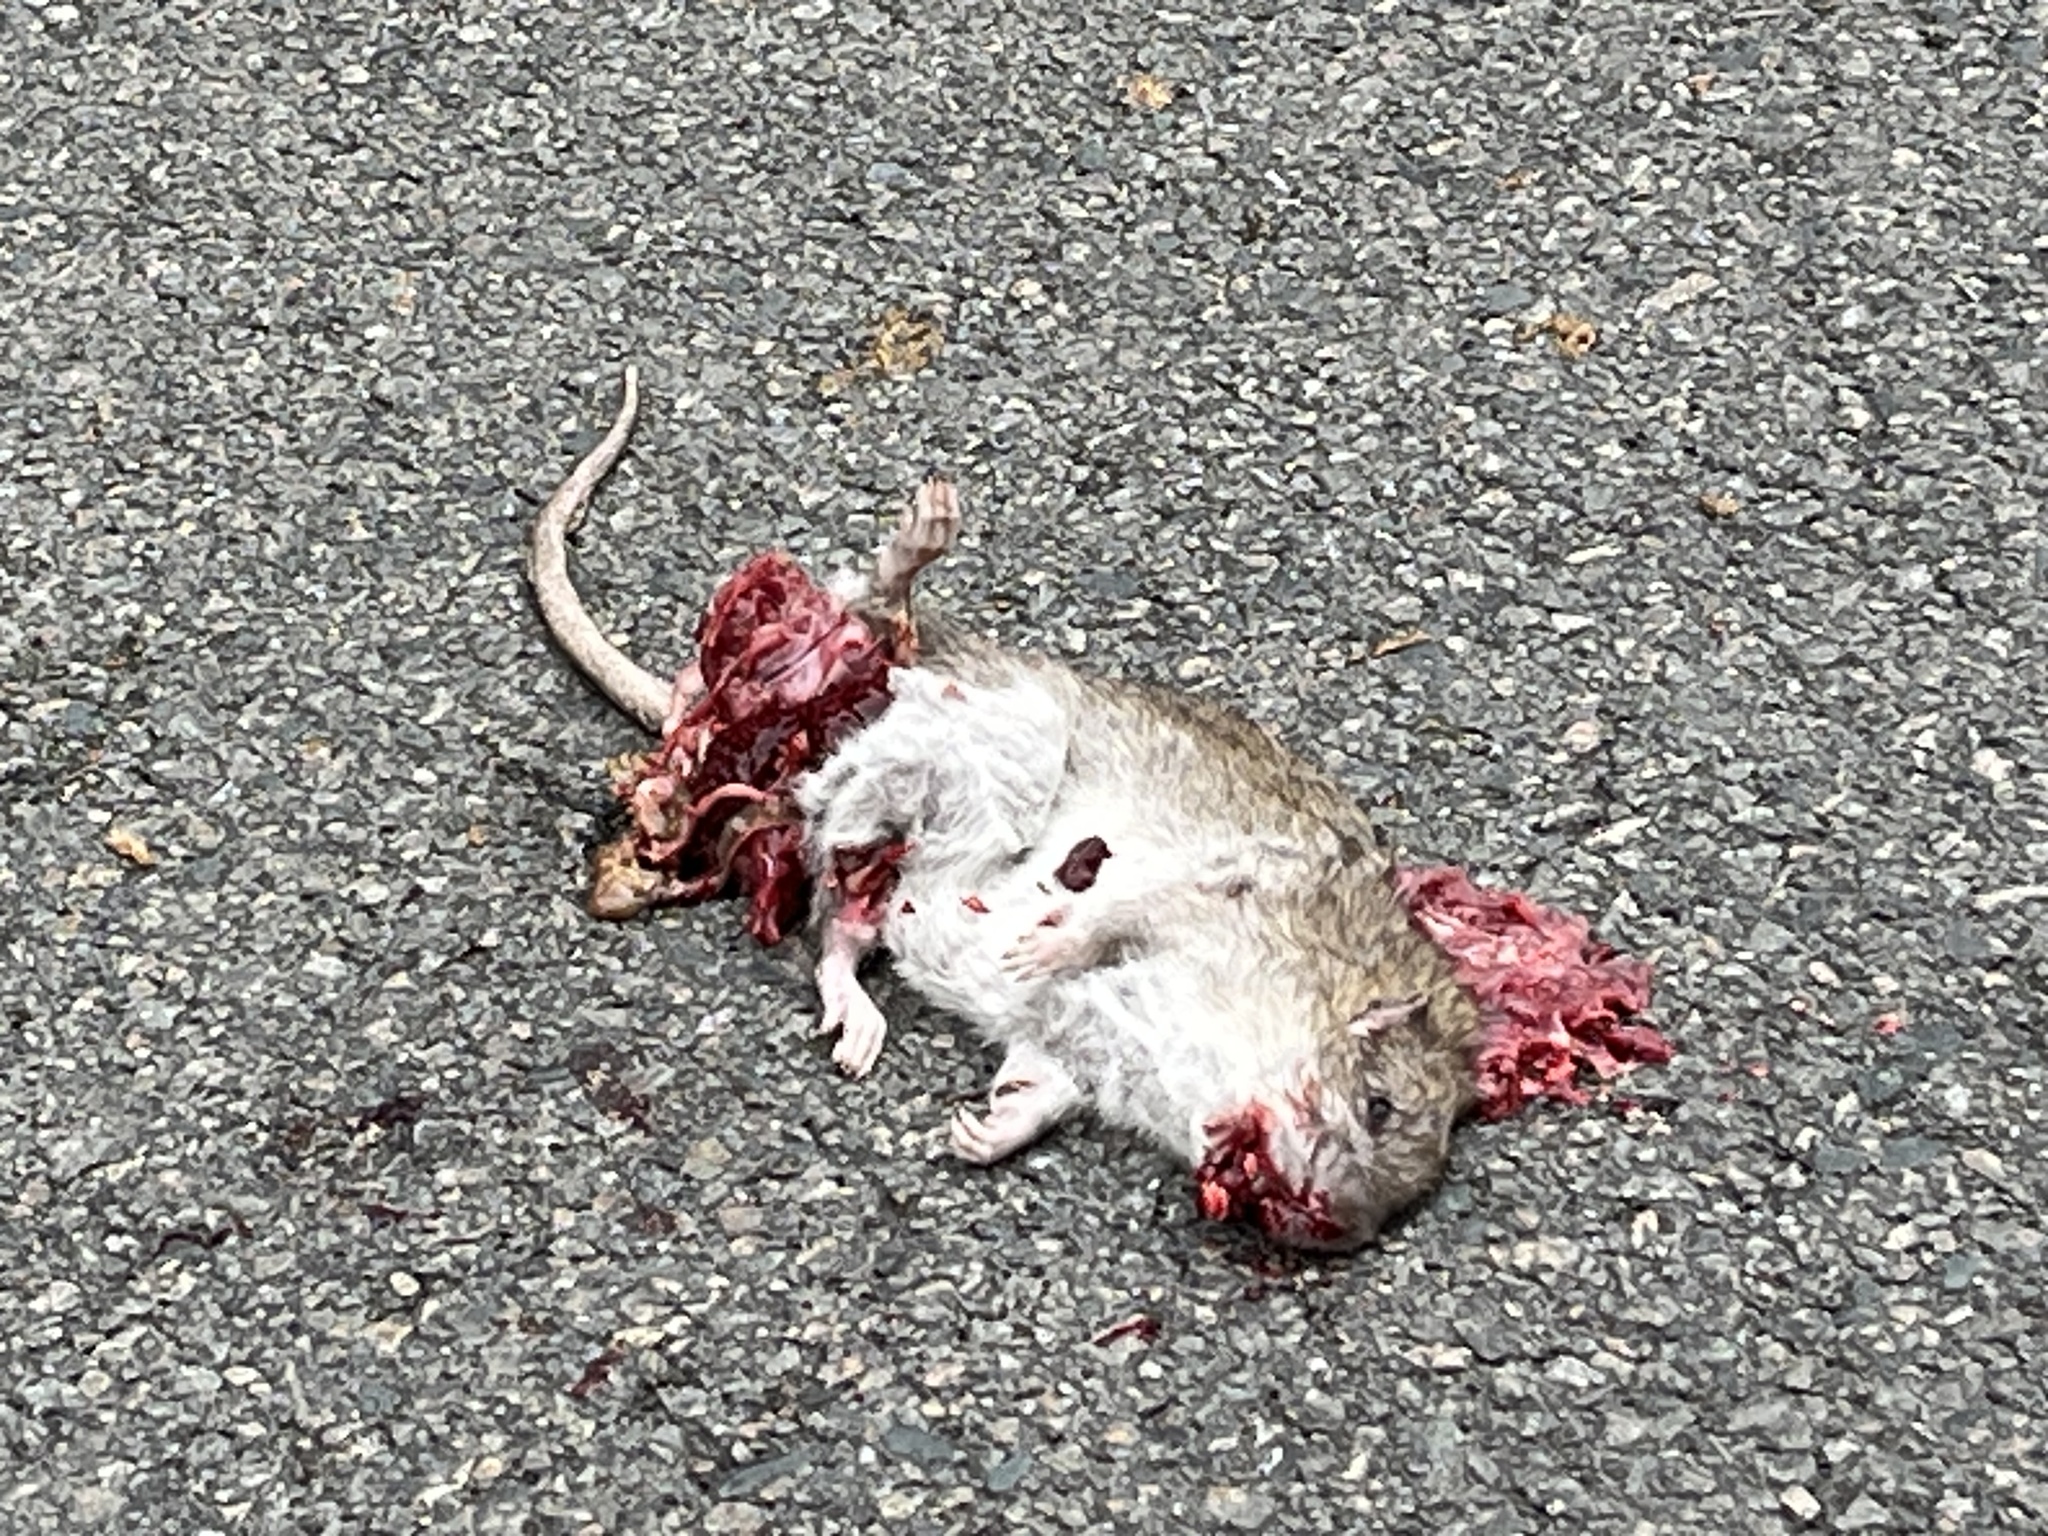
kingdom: Animalia
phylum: Chordata
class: Mammalia
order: Rodentia
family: Muridae
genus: Rattus
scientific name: Rattus norvegicus
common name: Brown rat
